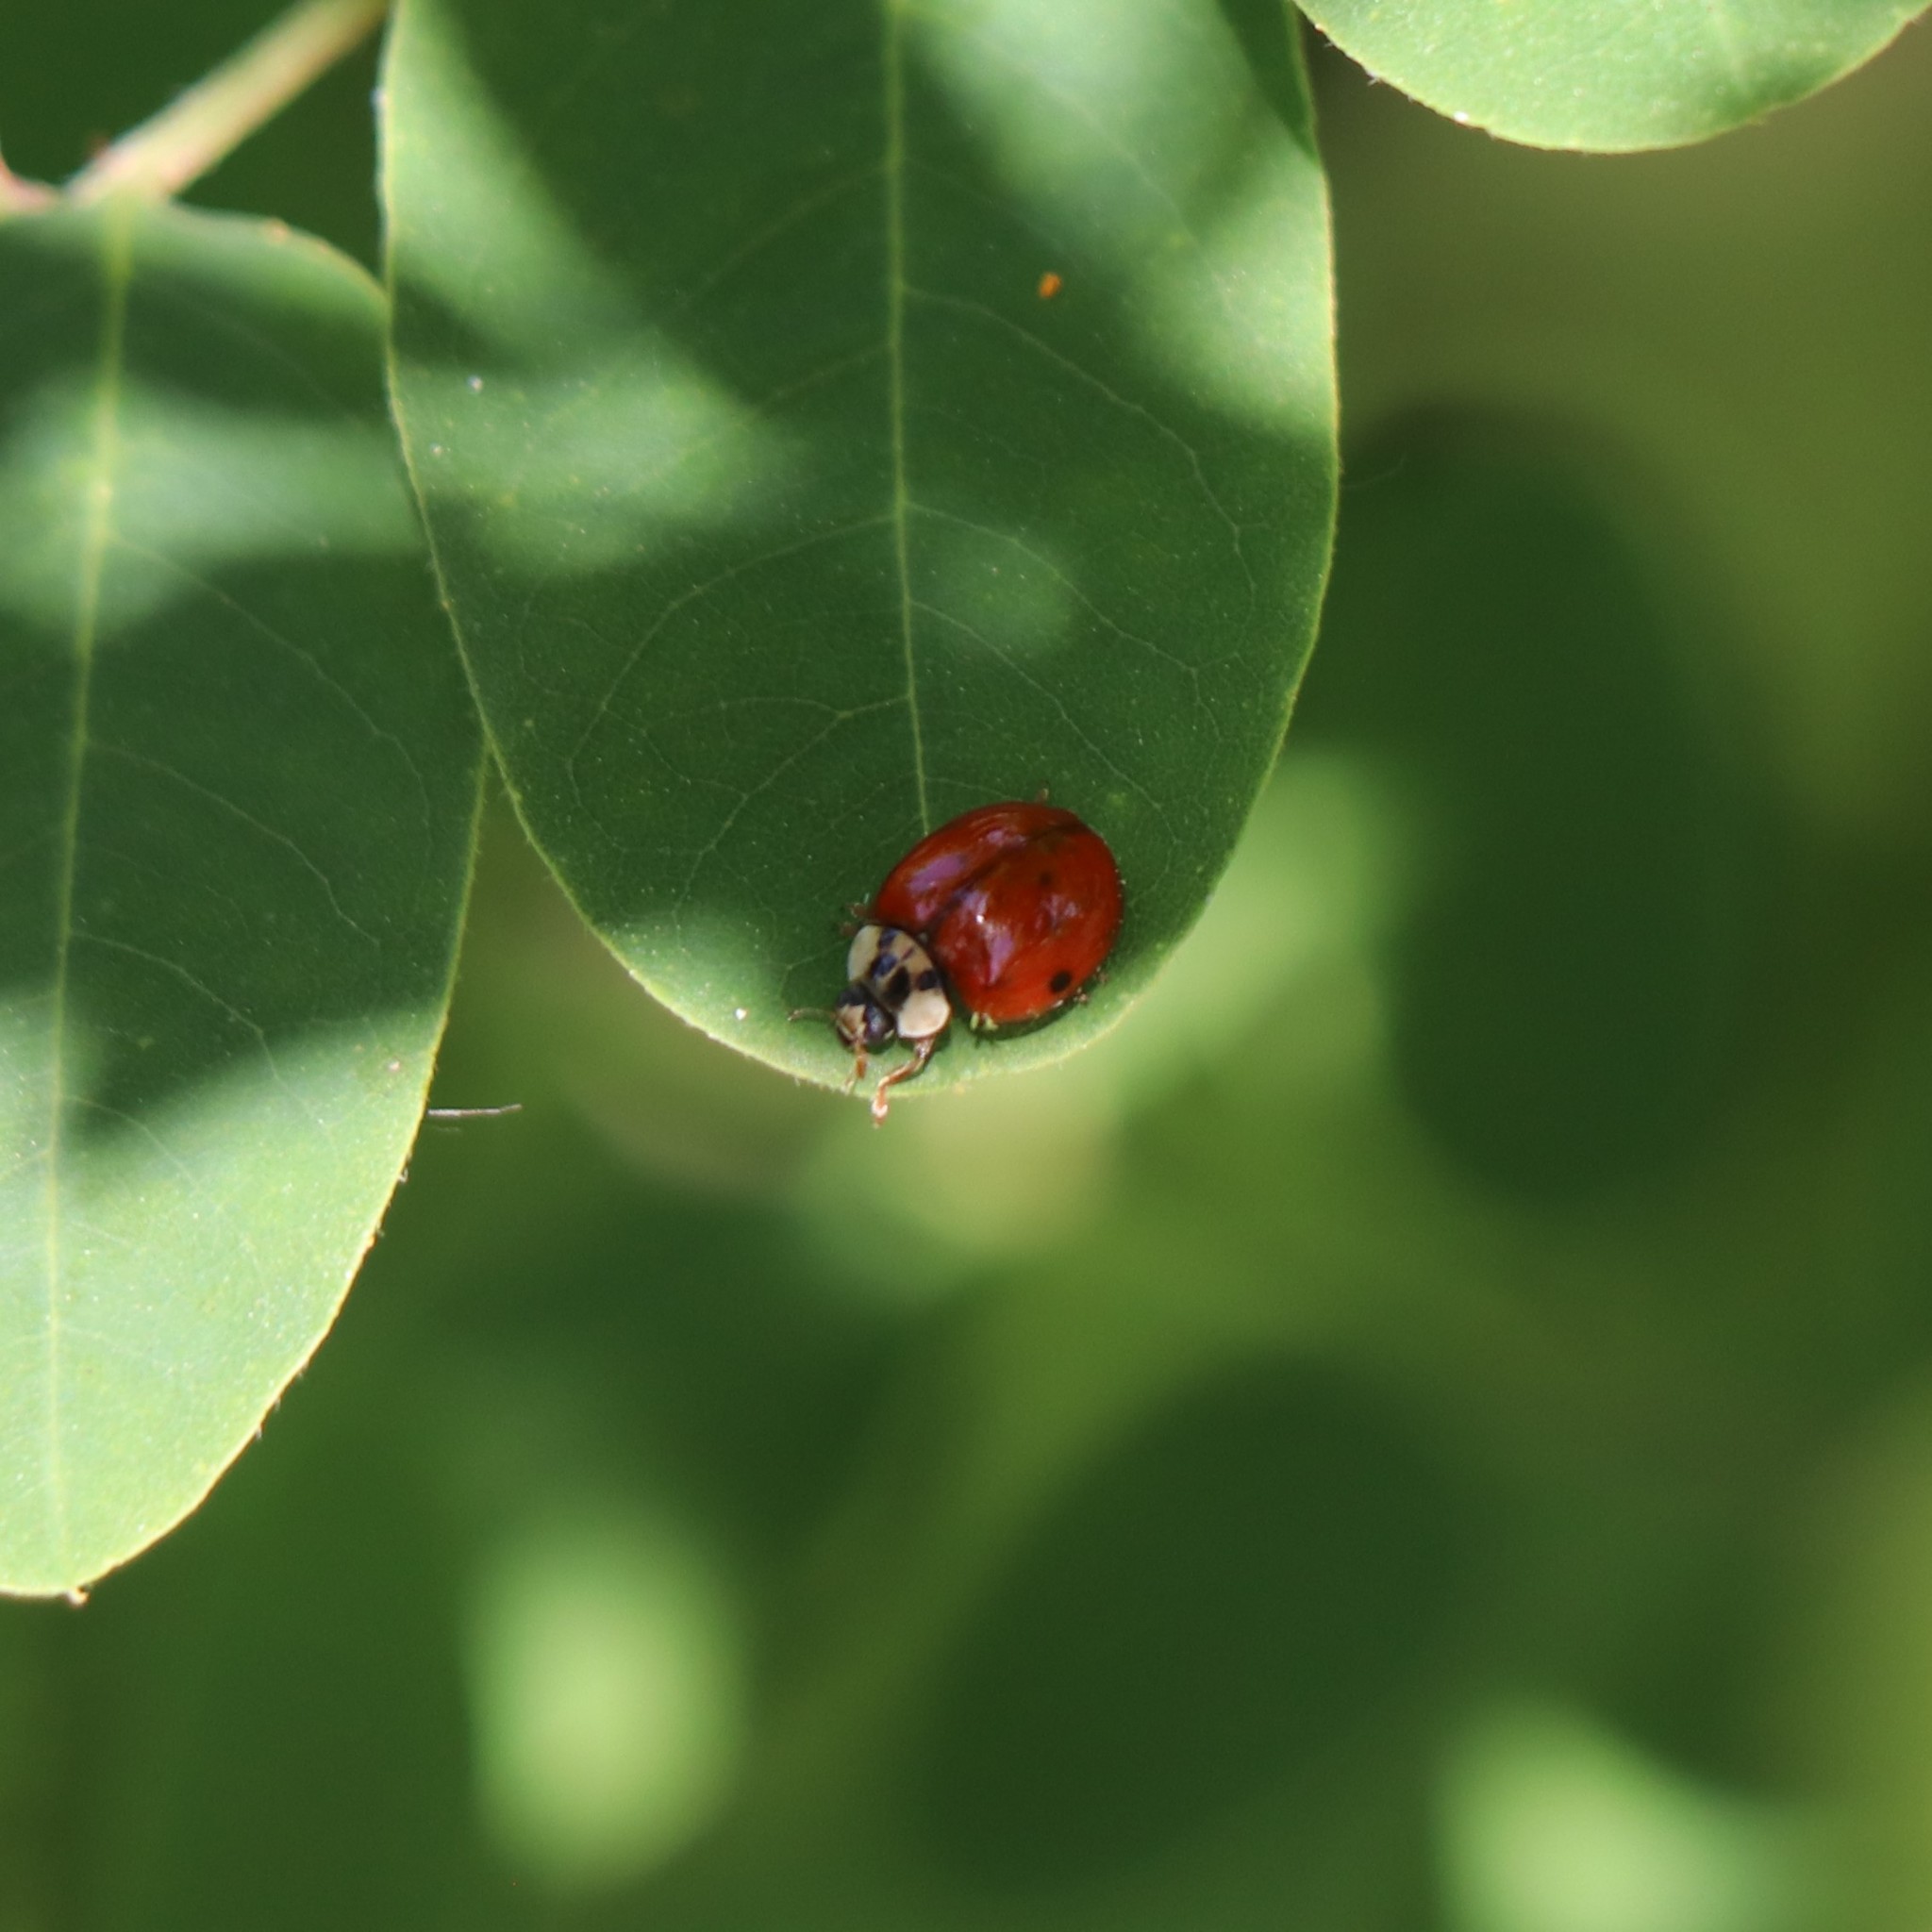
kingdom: Animalia
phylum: Arthropoda
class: Insecta
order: Coleoptera
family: Coccinellidae
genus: Harmonia
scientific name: Harmonia axyridis
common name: Harlequin ladybird
